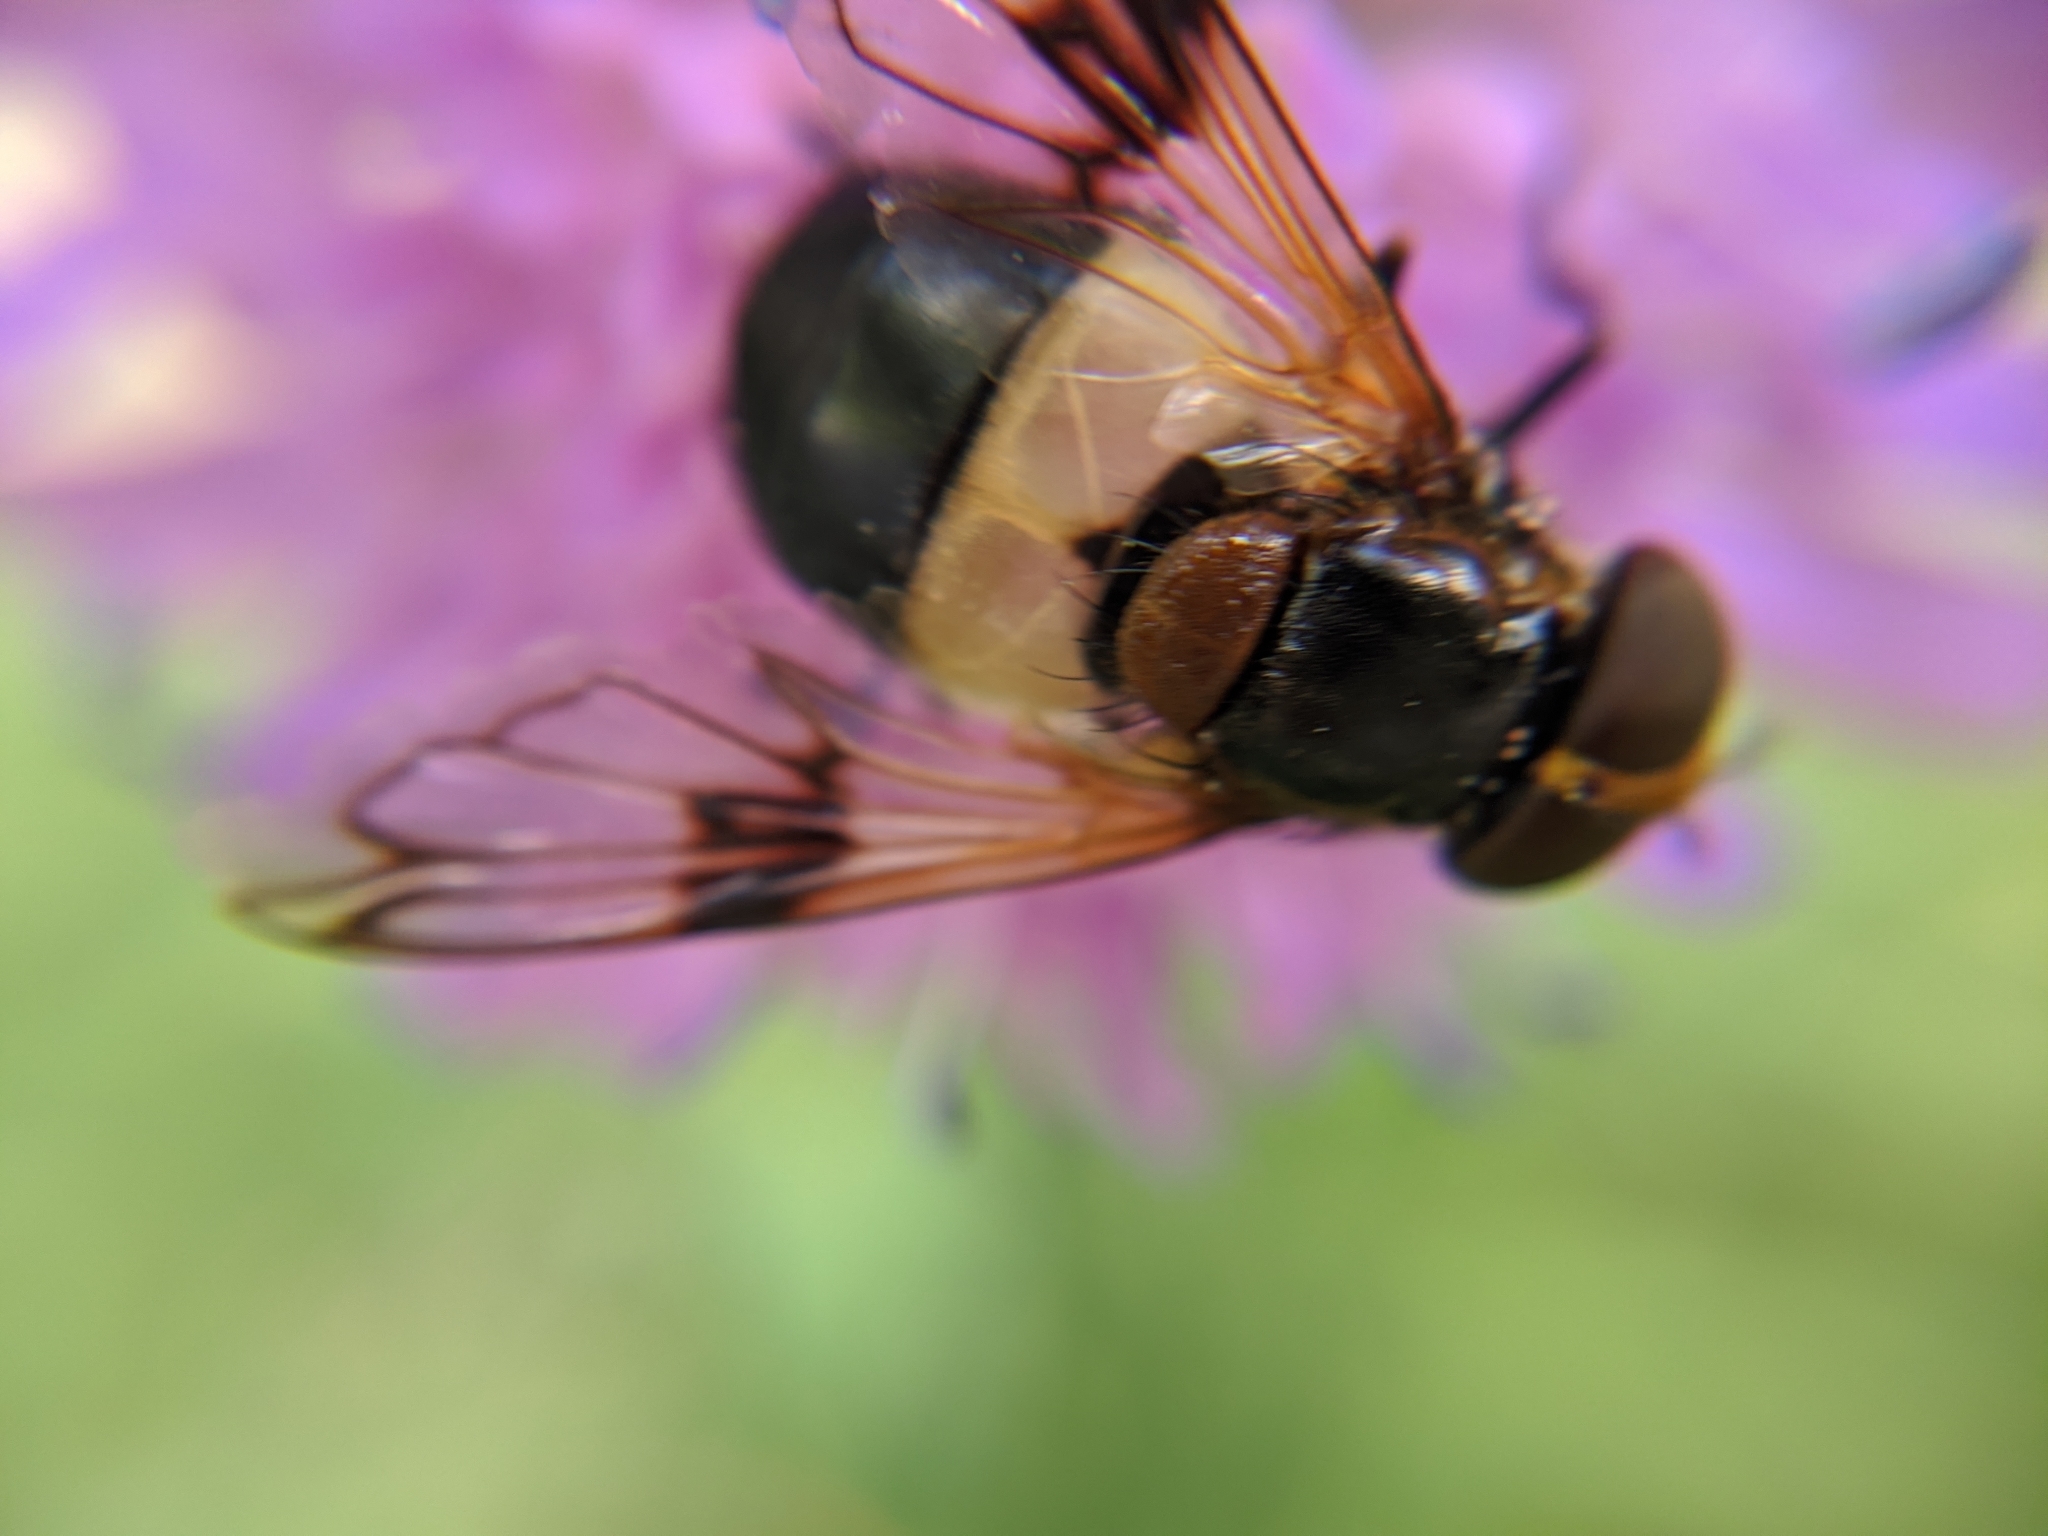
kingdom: Animalia
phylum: Arthropoda
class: Insecta
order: Diptera
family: Syrphidae
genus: Volucella
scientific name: Volucella pellucens
